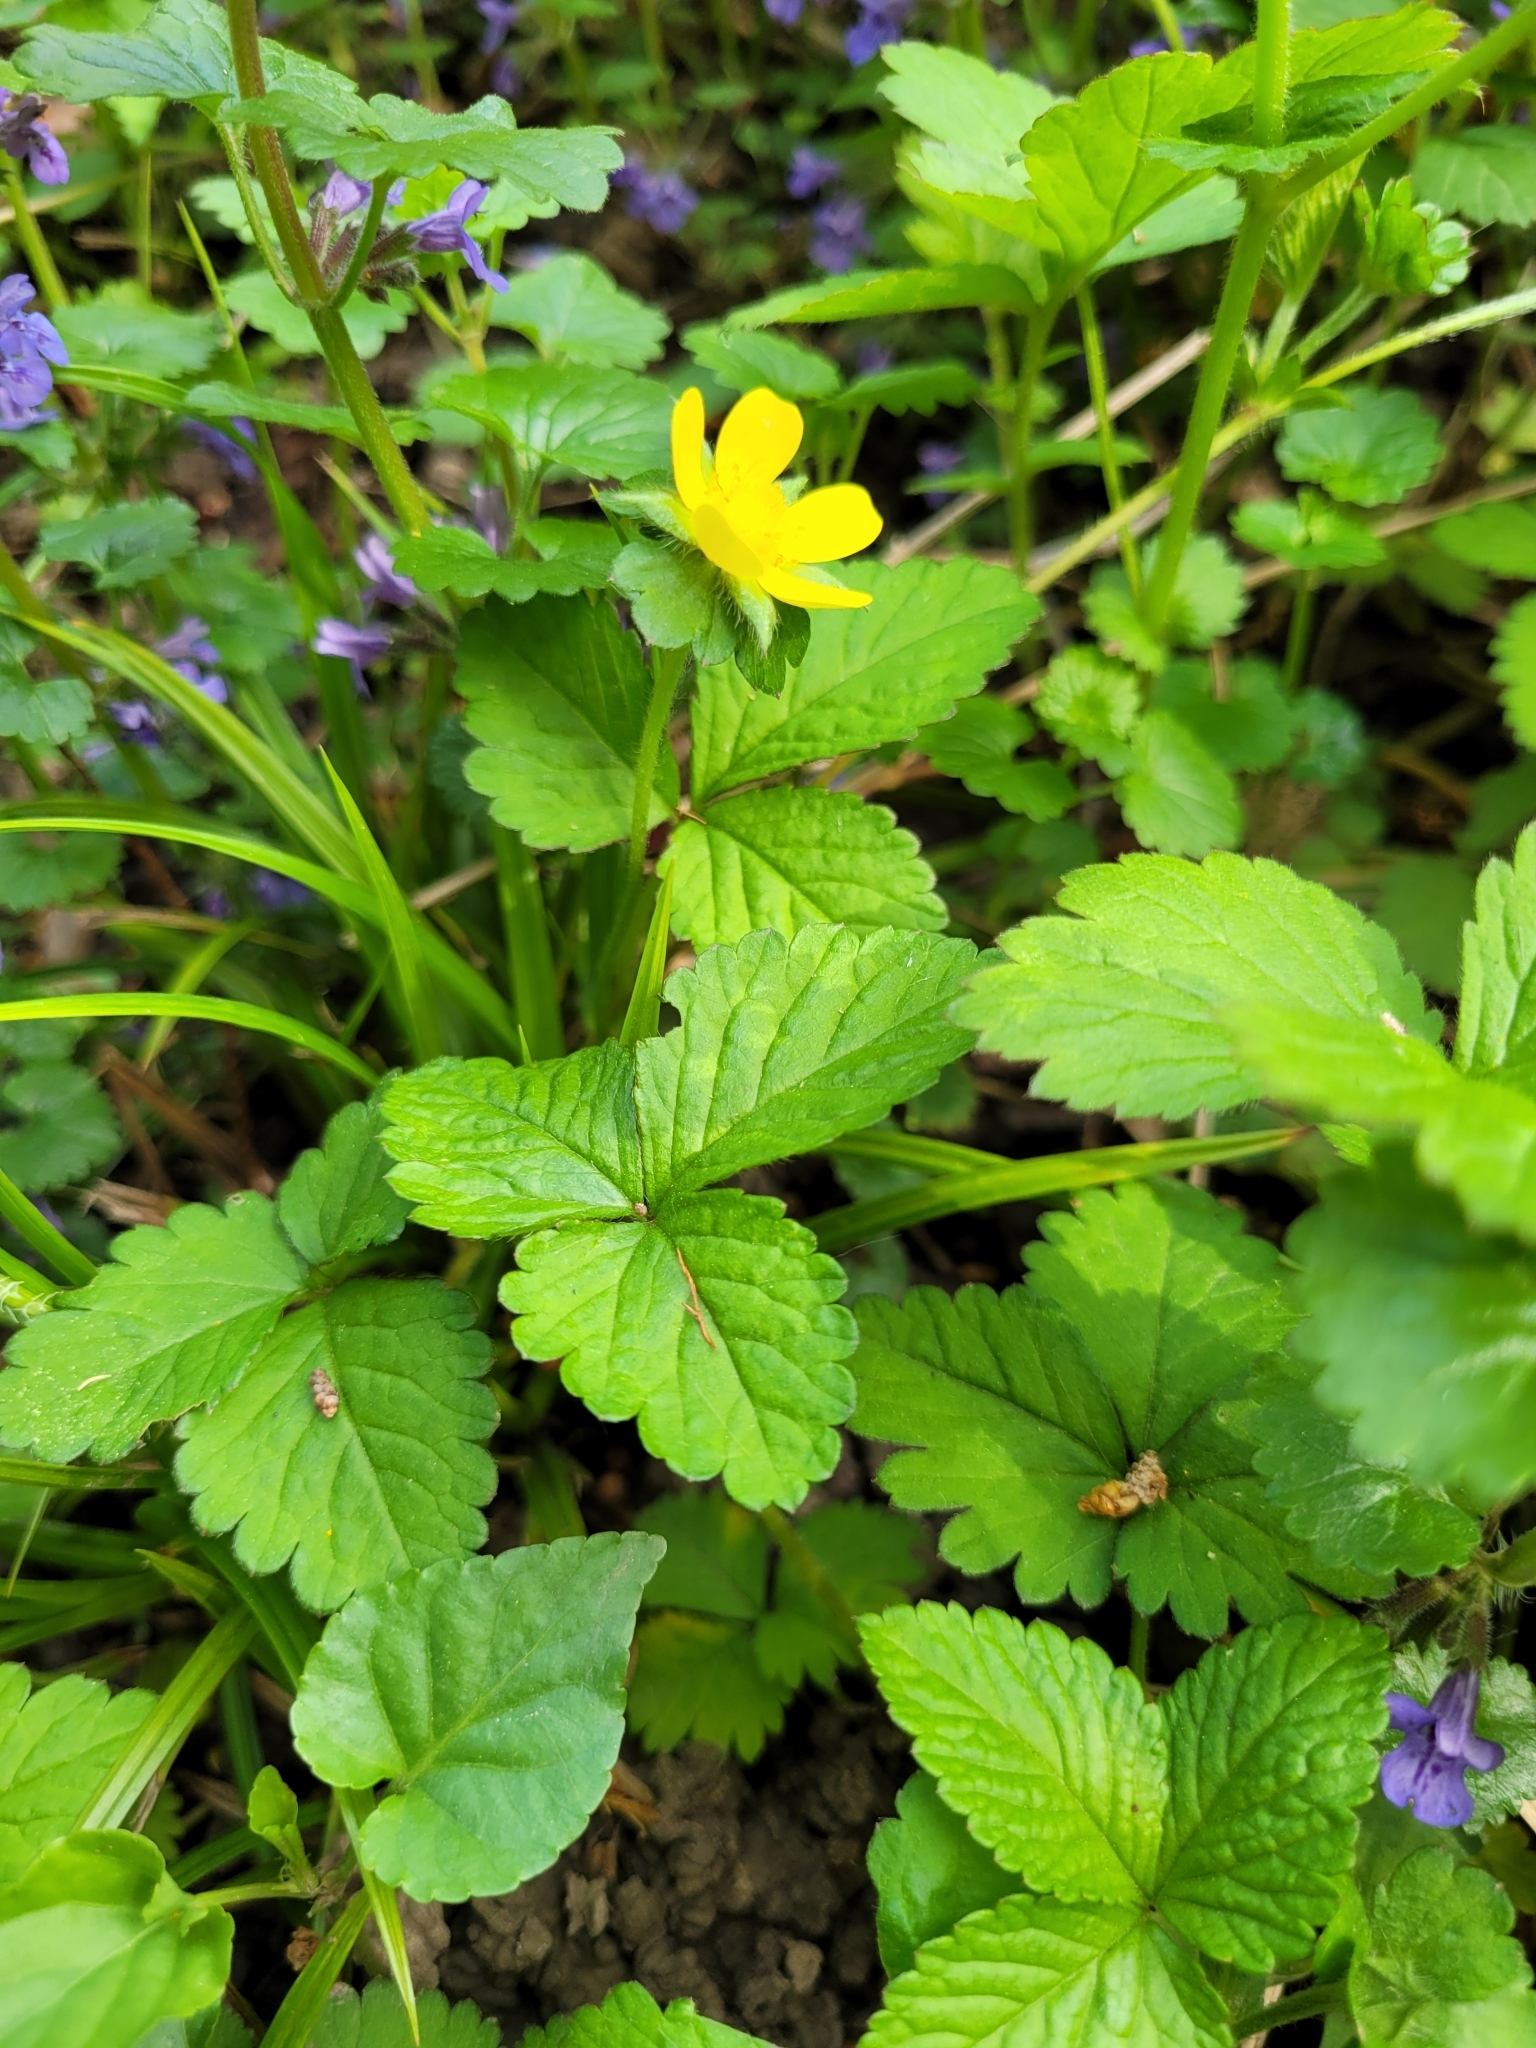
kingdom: Plantae
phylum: Tracheophyta
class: Magnoliopsida
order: Rosales
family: Rosaceae
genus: Potentilla
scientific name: Potentilla indica
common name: Yellow-flowered strawberry
